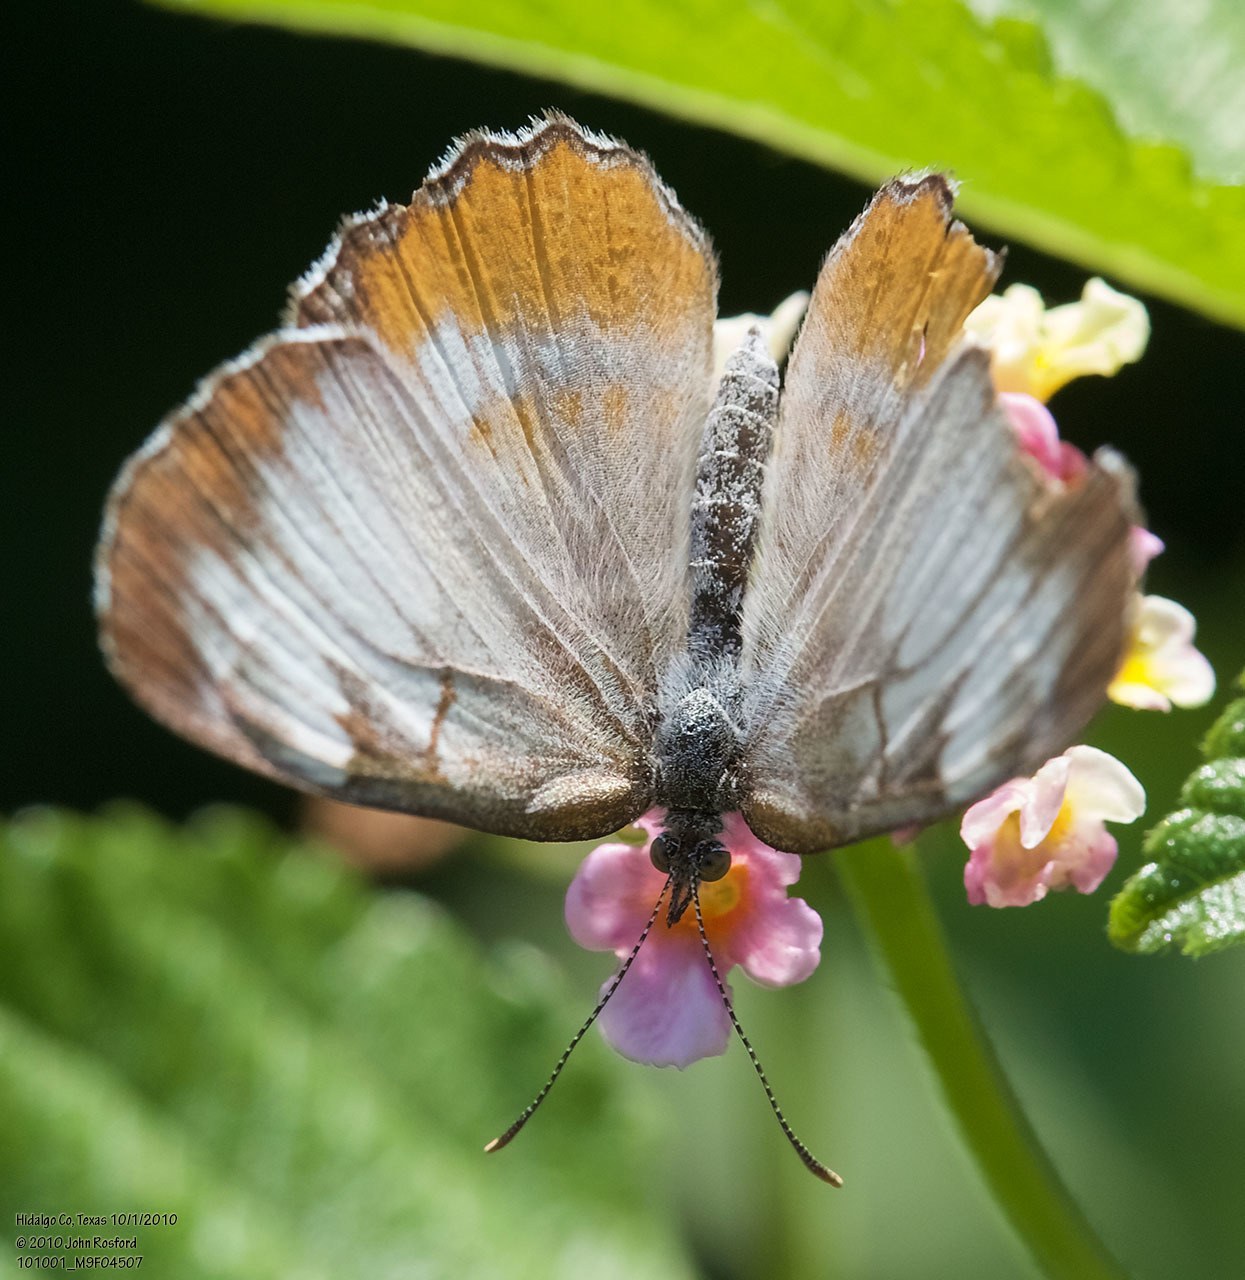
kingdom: Animalia
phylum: Arthropoda
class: Insecta
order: Lepidoptera
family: Nymphalidae
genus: Mestra
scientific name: Mestra amymone
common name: Common mestra
